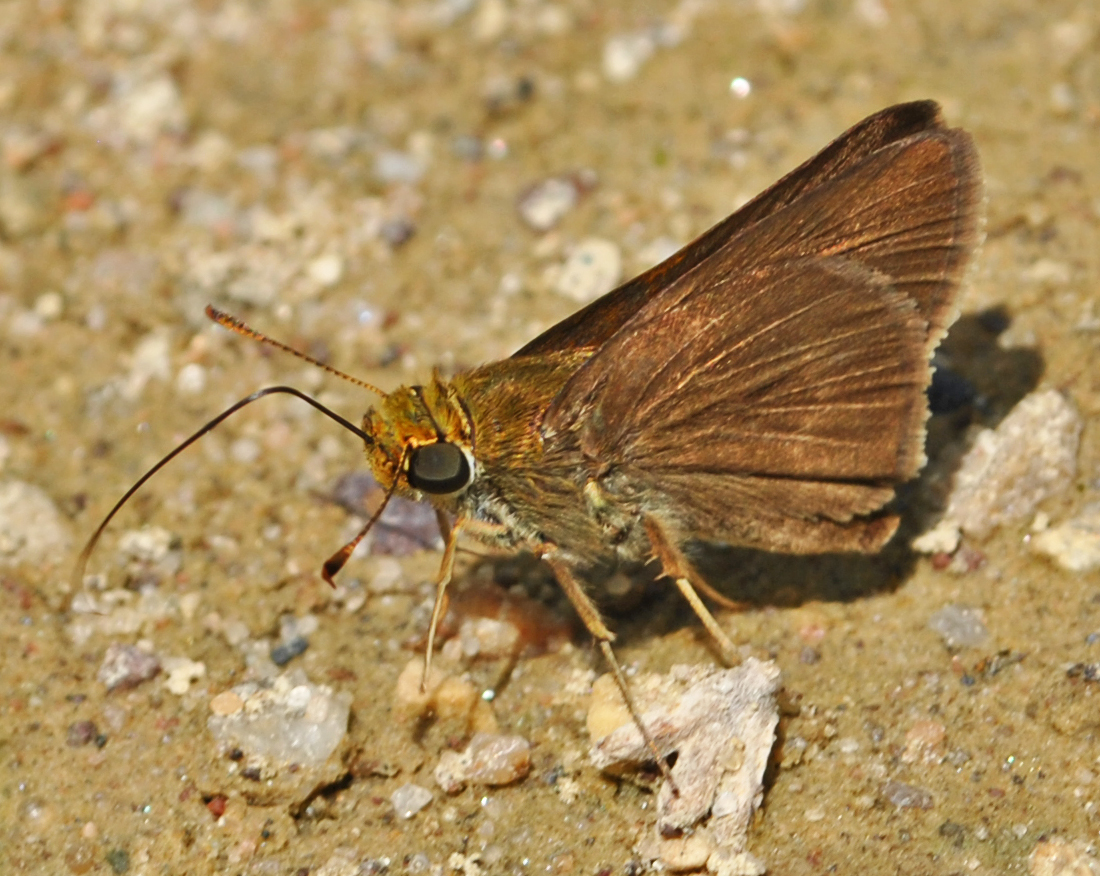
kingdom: Animalia
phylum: Arthropoda
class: Insecta
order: Lepidoptera
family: Hesperiidae
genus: Euphyes
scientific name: Euphyes vestris
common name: Dun skipper
